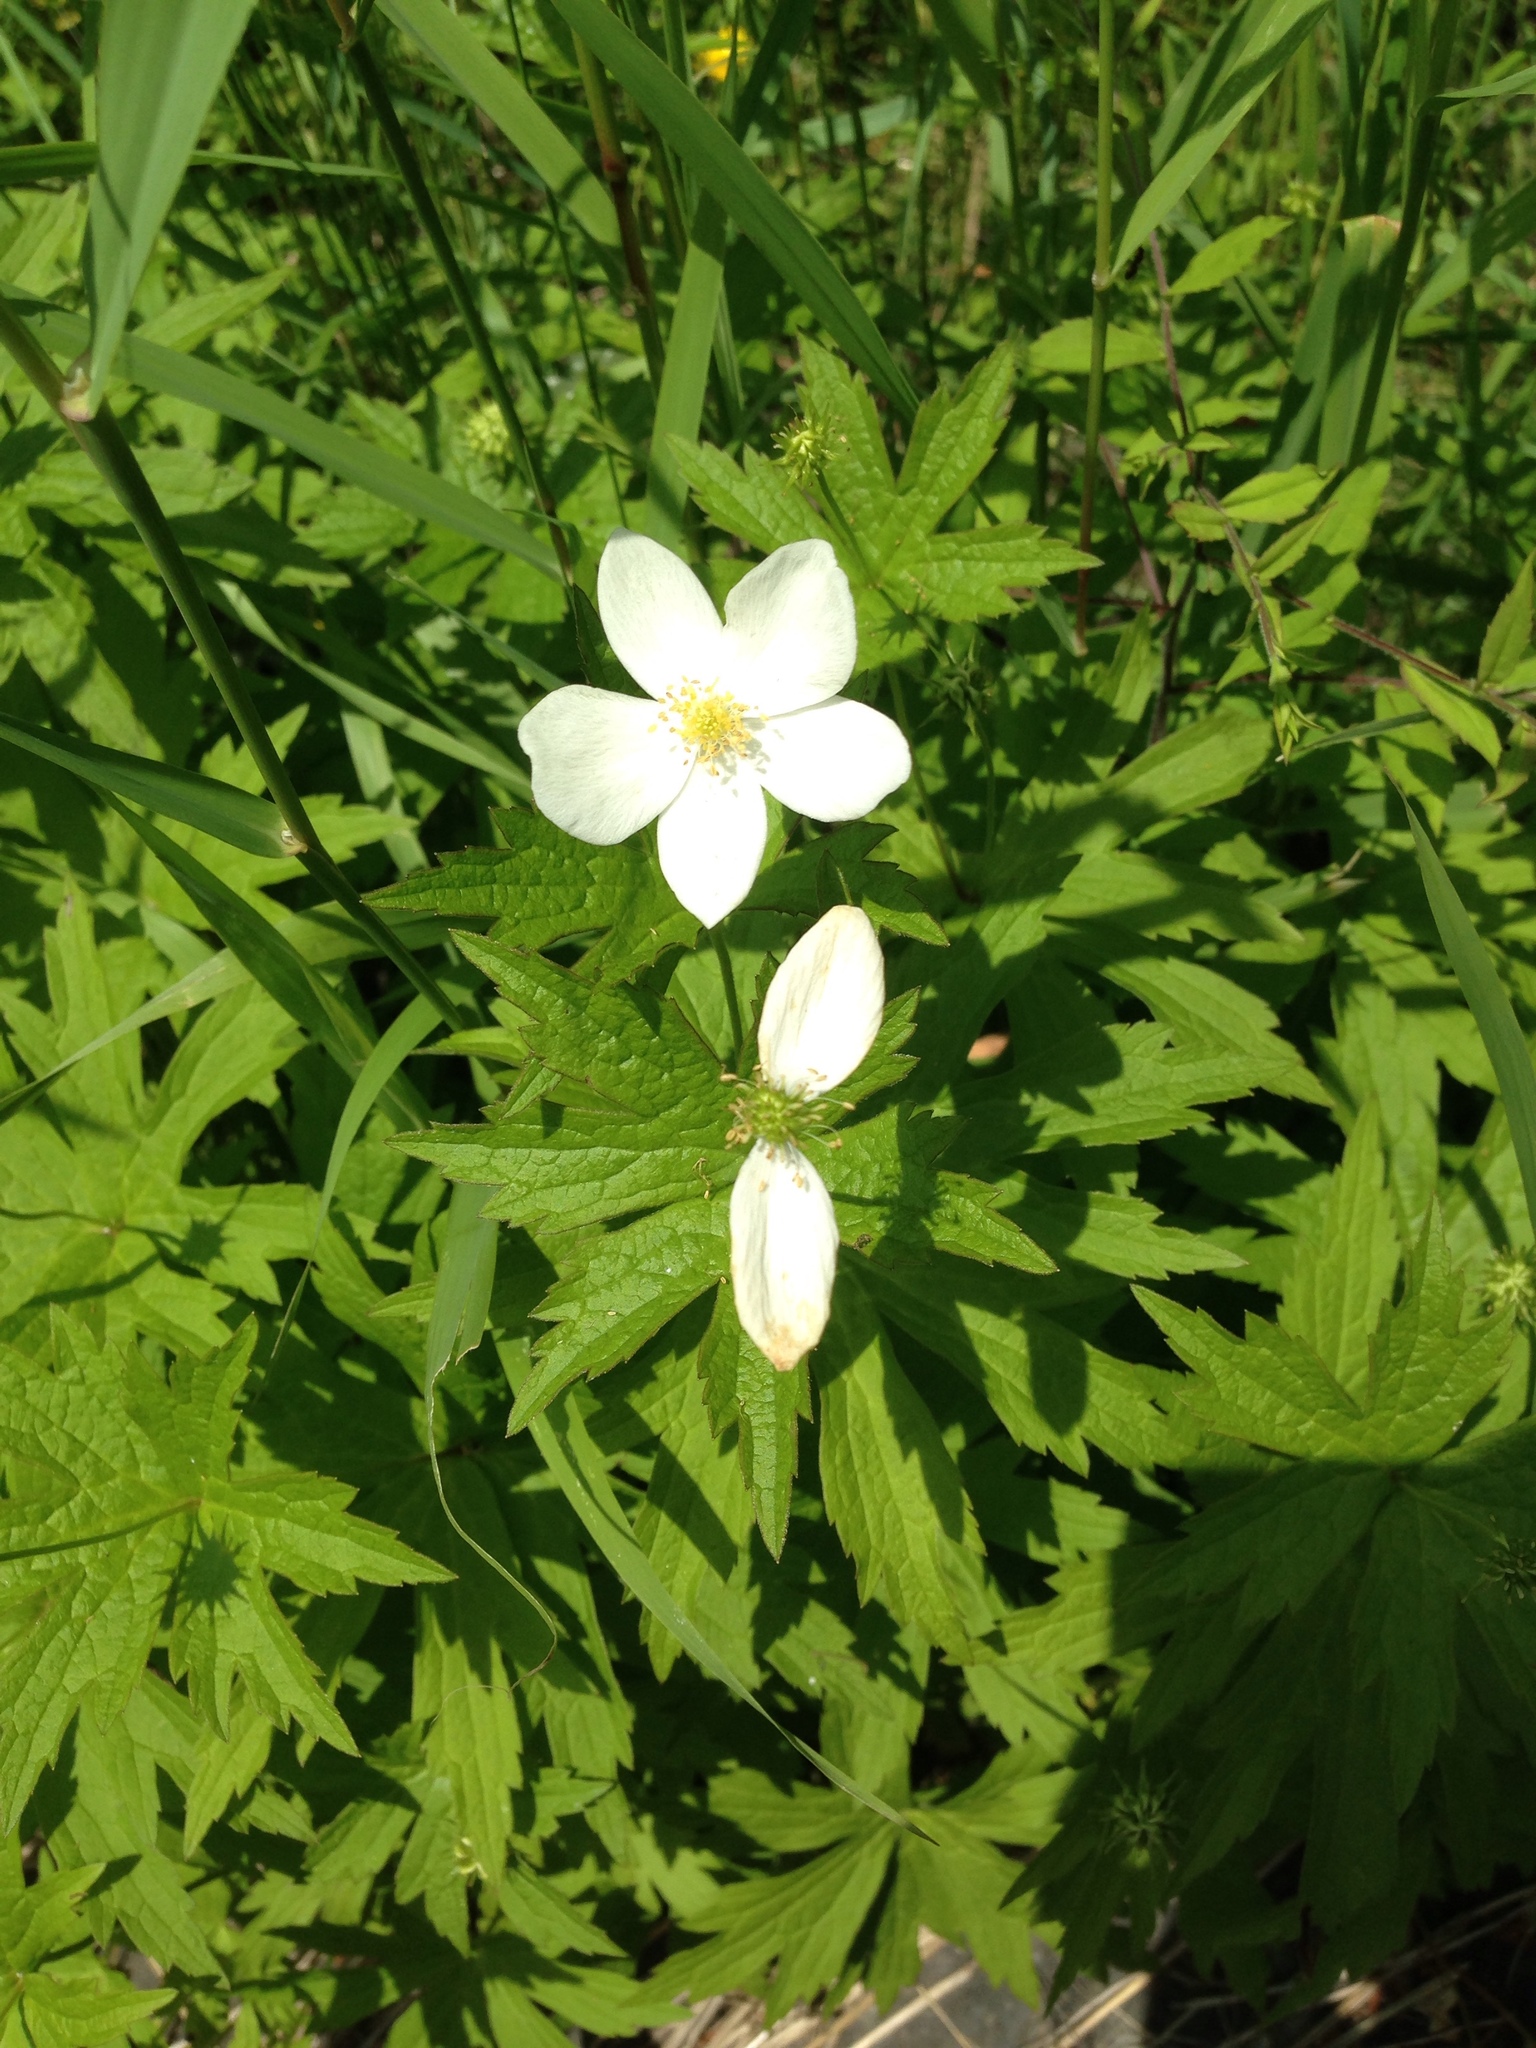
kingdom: Plantae
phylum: Tracheophyta
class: Magnoliopsida
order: Ranunculales
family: Ranunculaceae
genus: Anemonastrum
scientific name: Anemonastrum canadense
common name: Canada anemone
